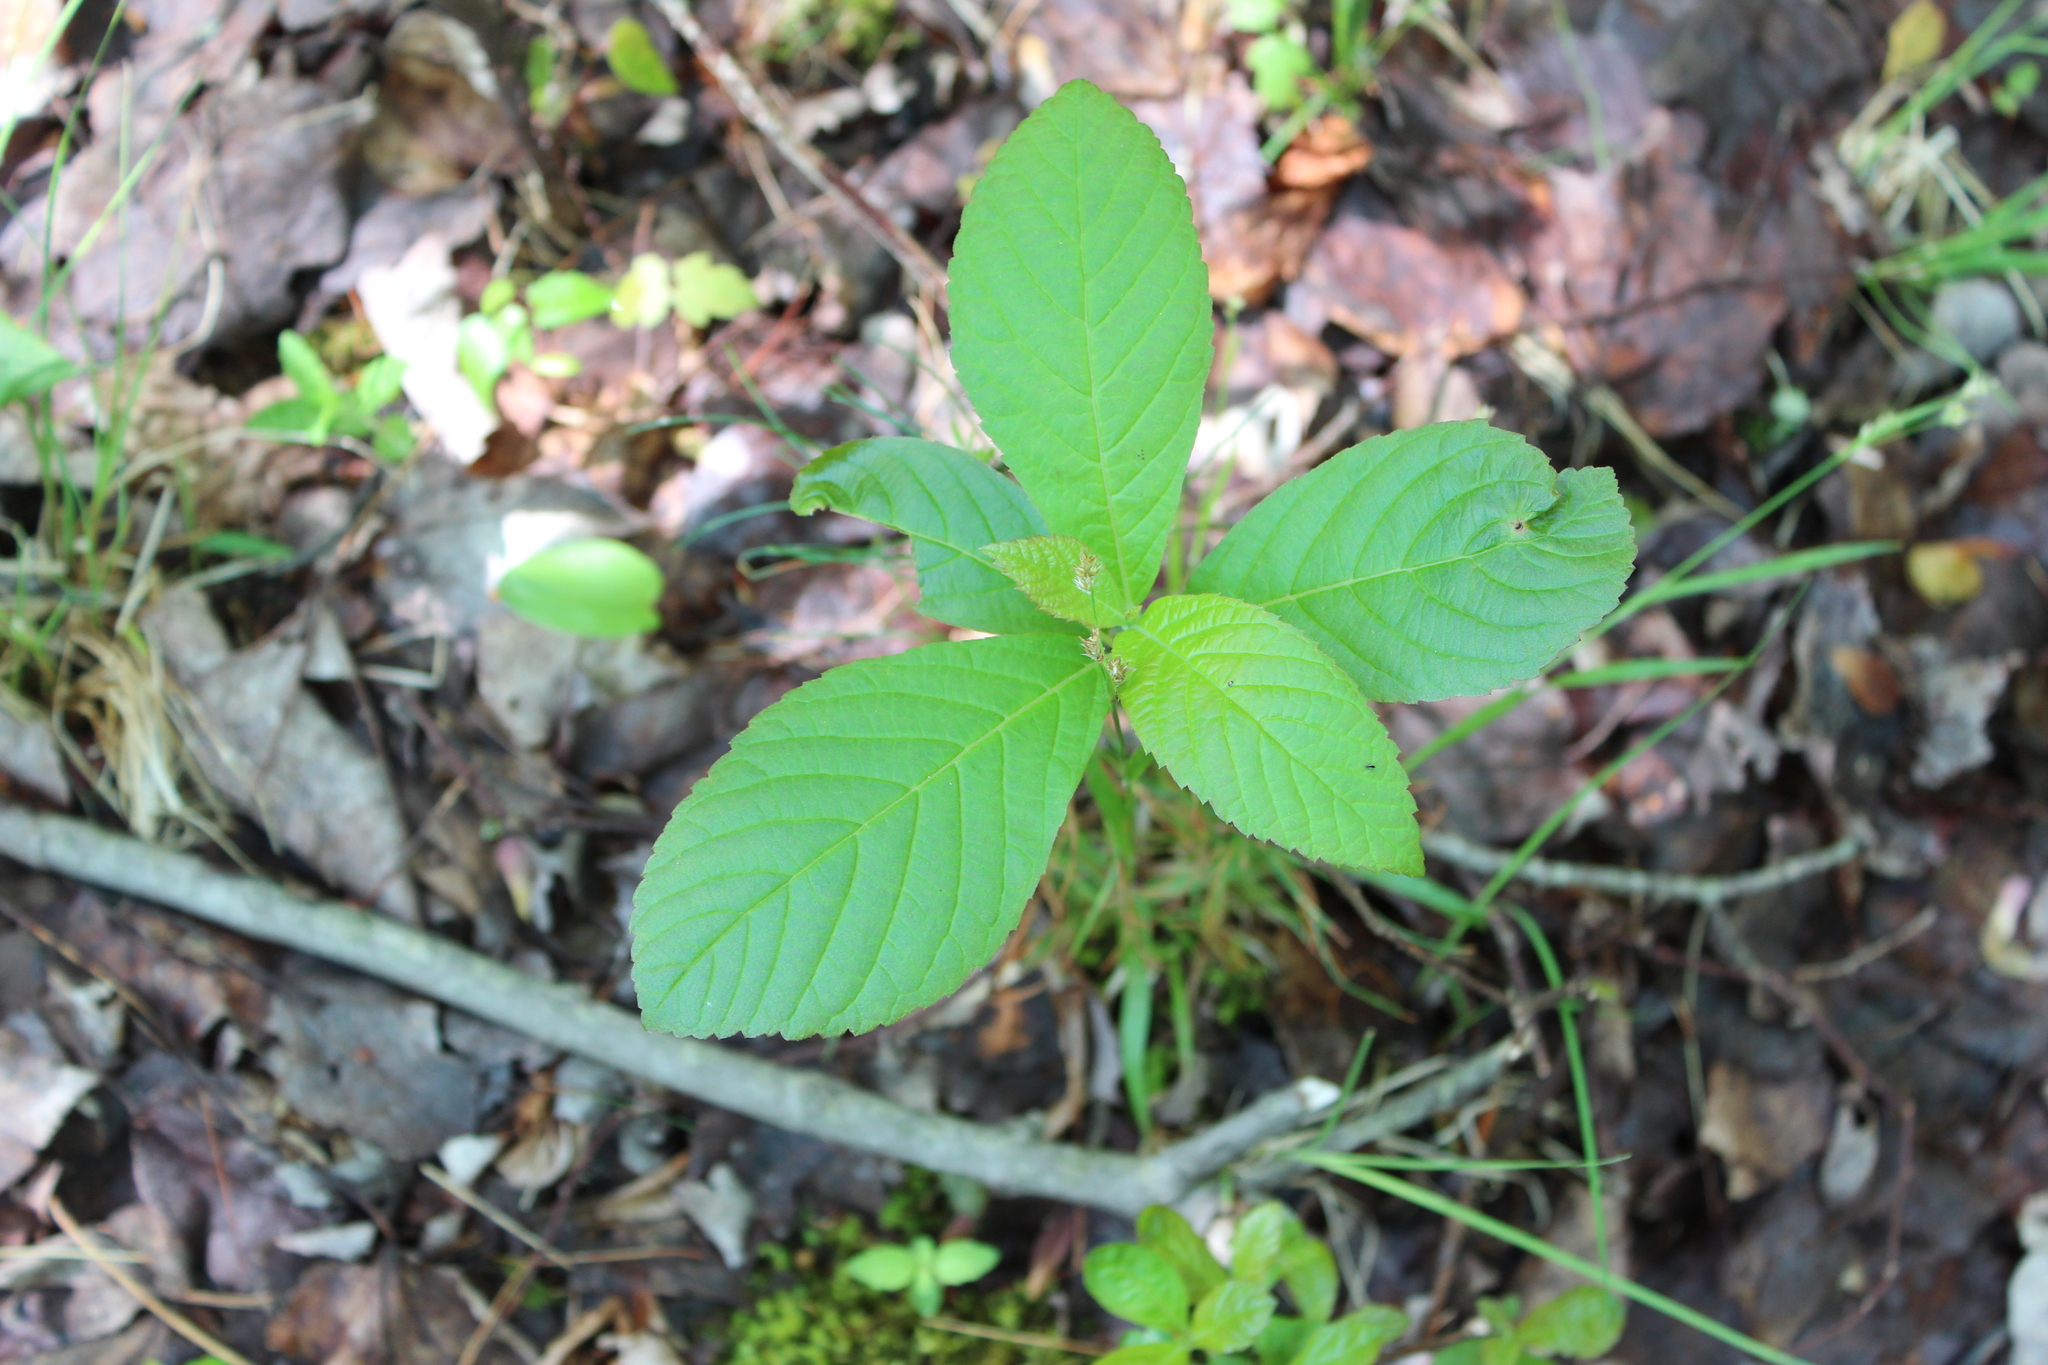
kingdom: Plantae
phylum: Tracheophyta
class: Magnoliopsida
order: Ericales
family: Clethraceae
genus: Clethra
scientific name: Clethra alnifolia
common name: Sweet pepperbush
